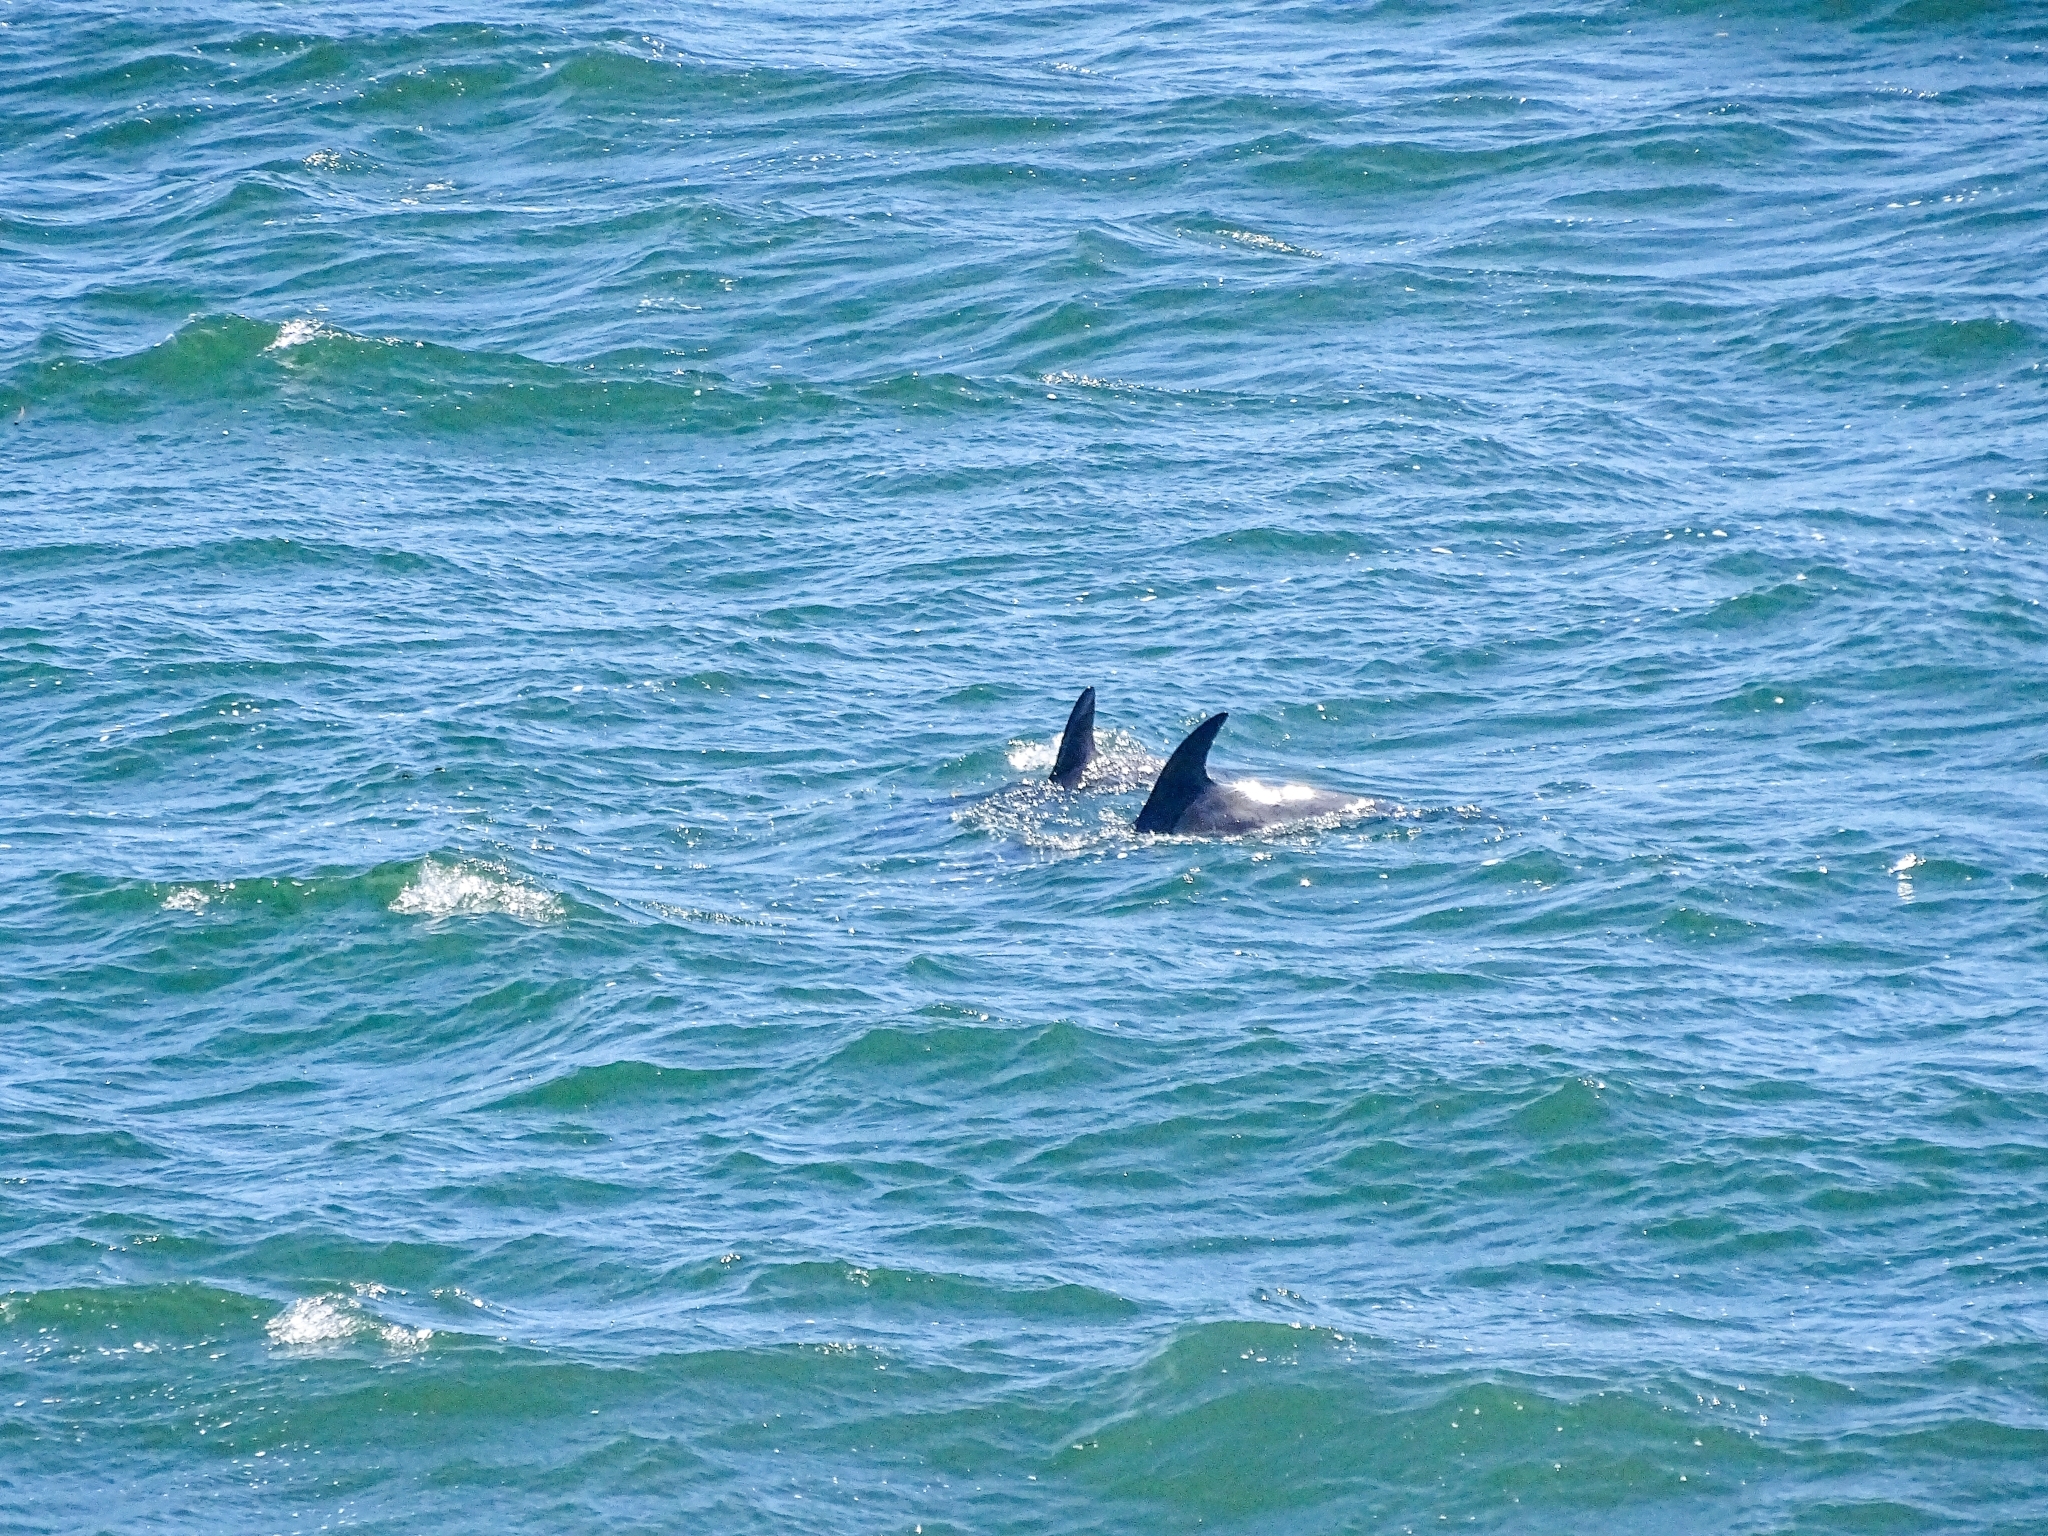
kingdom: Animalia
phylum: Chordata
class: Mammalia
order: Cetacea
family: Delphinidae
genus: Lagenorhynchus
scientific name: Lagenorhynchus australis
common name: Peale's dolphin
